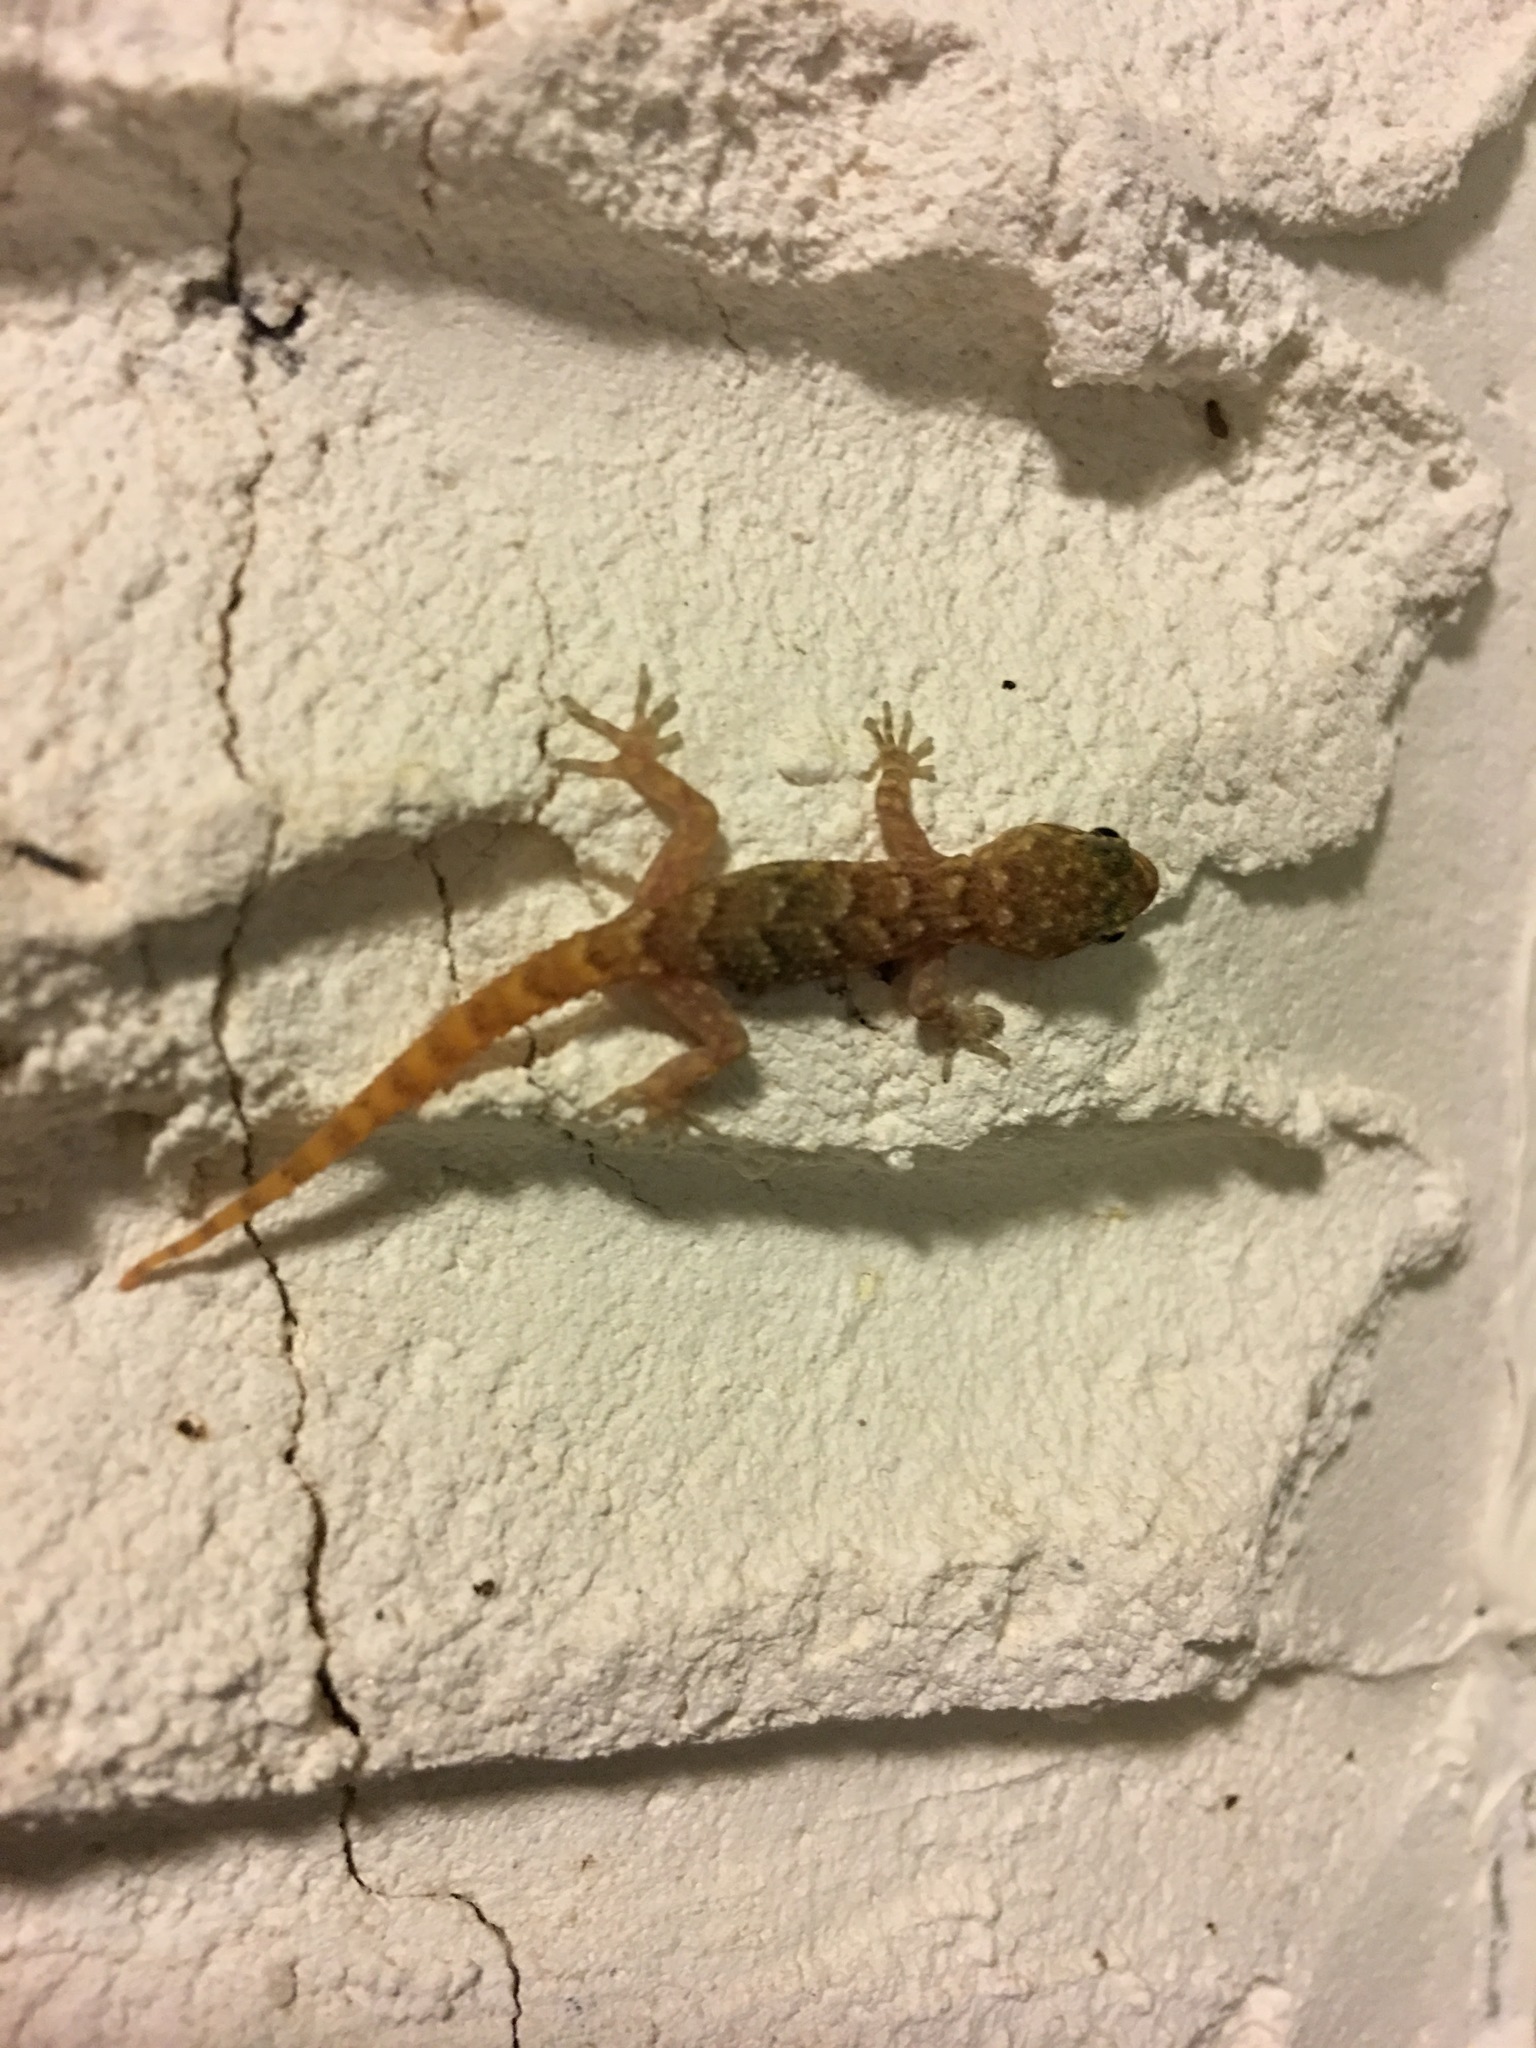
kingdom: Animalia
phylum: Chordata
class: Squamata
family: Gekkonidae
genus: Mediodactylus
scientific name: Mediodactylus kotschyi
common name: Kotschy's gecko
